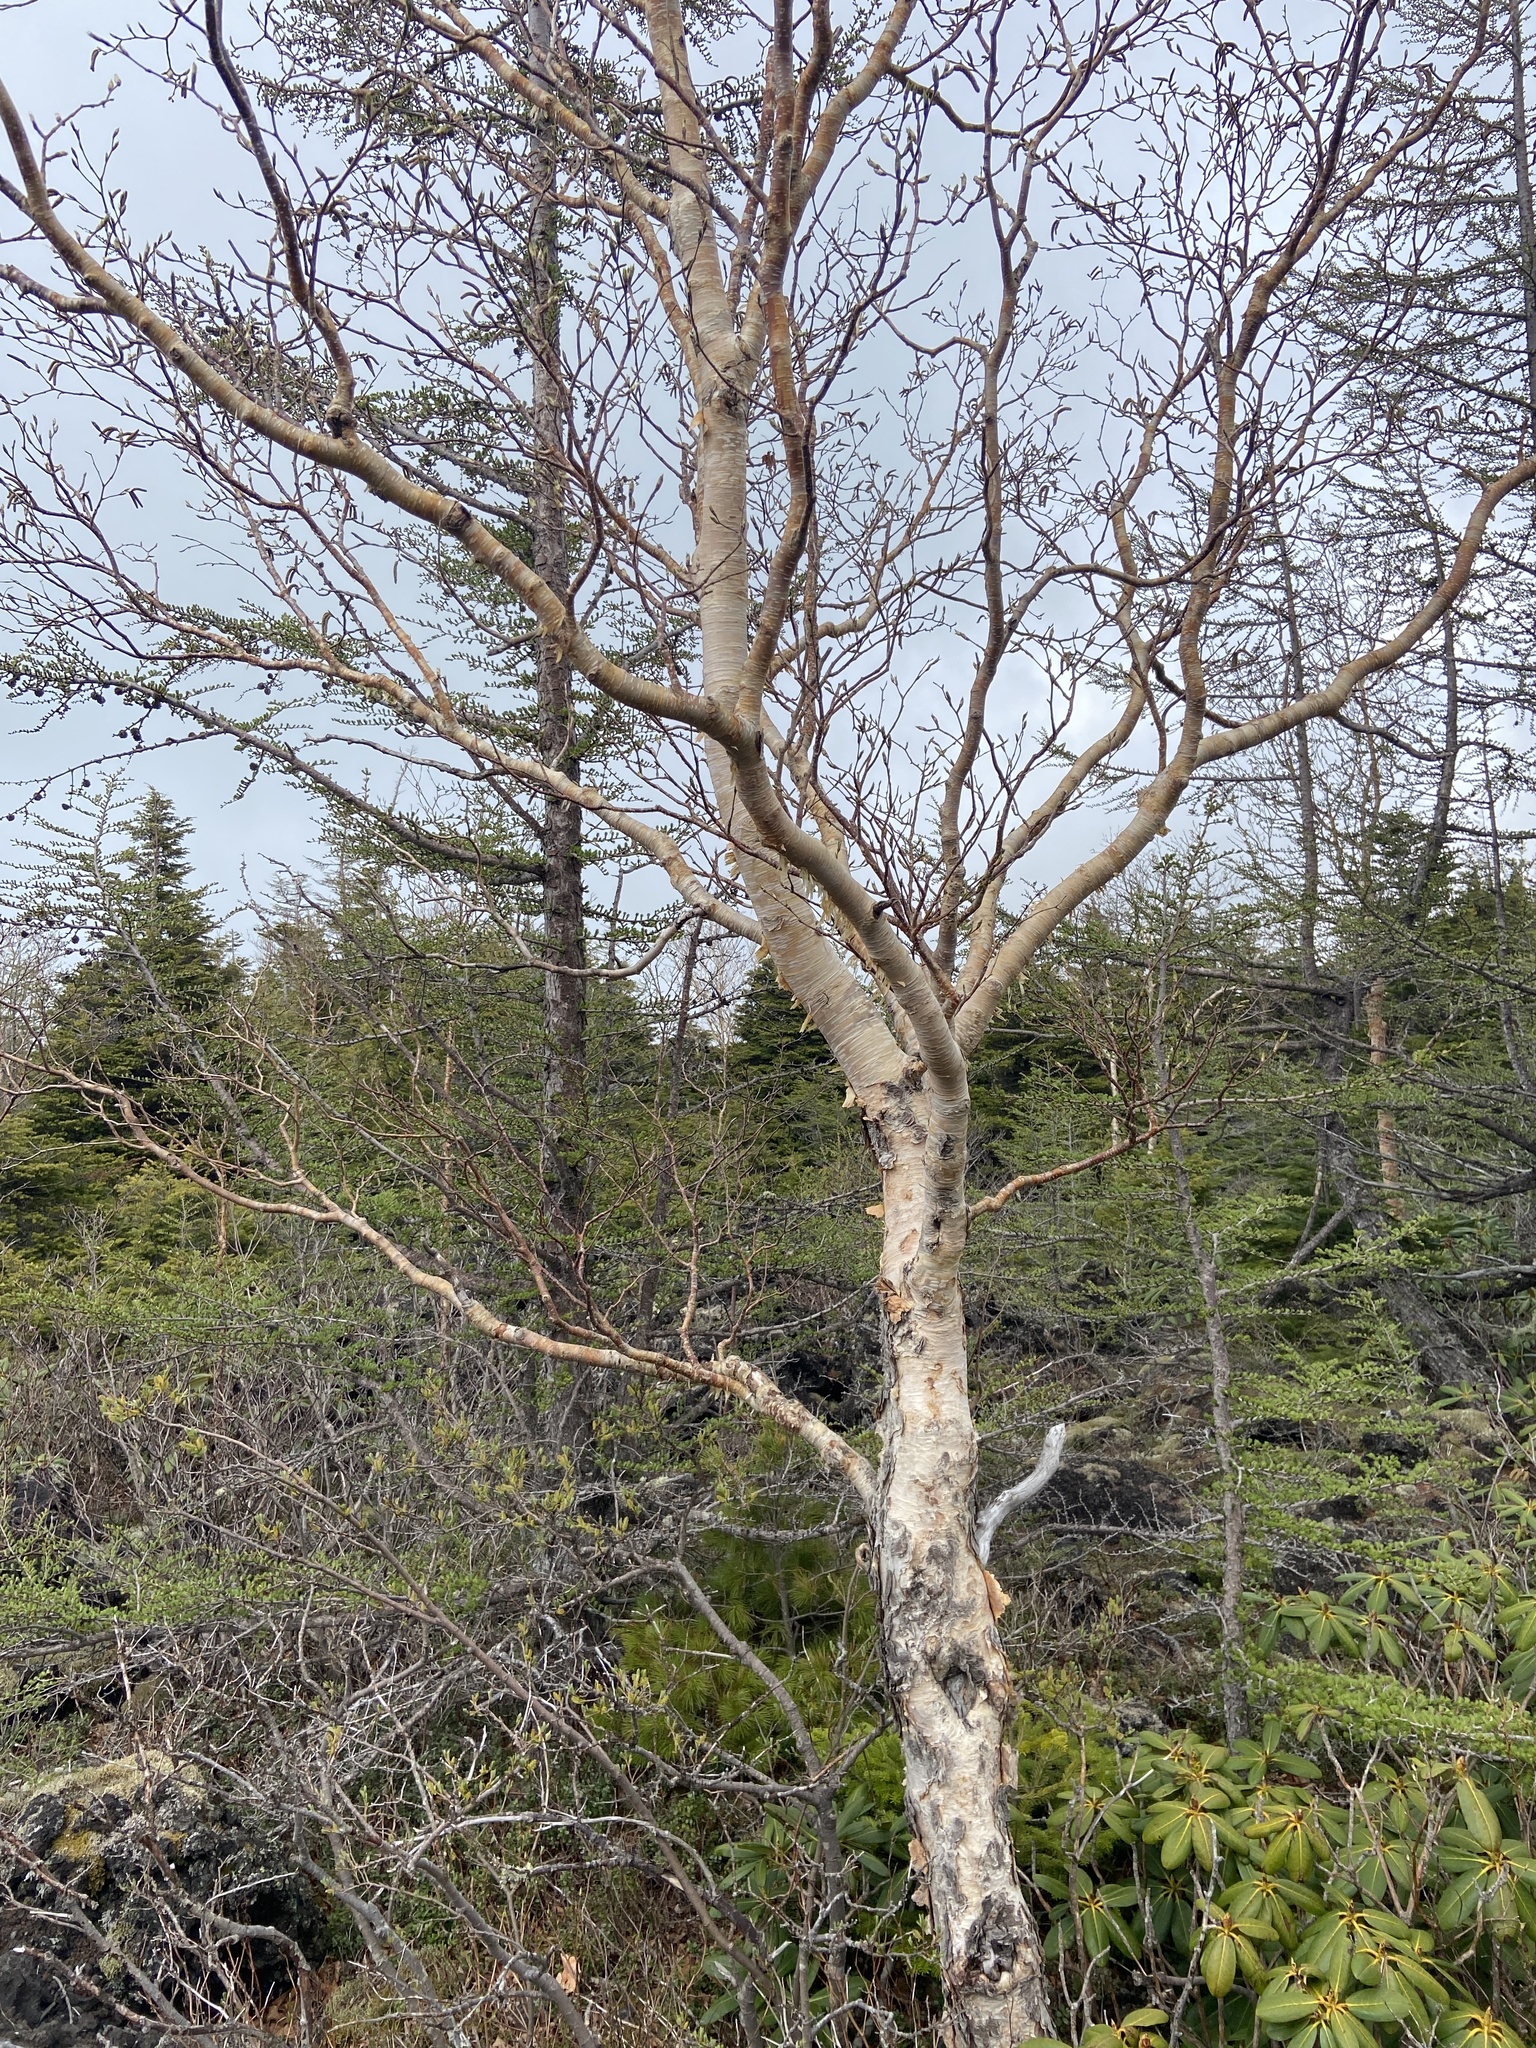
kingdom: Plantae
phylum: Tracheophyta
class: Magnoliopsida
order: Fagales
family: Betulaceae
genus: Betula
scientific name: Betula ermanii
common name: Erman's birch
